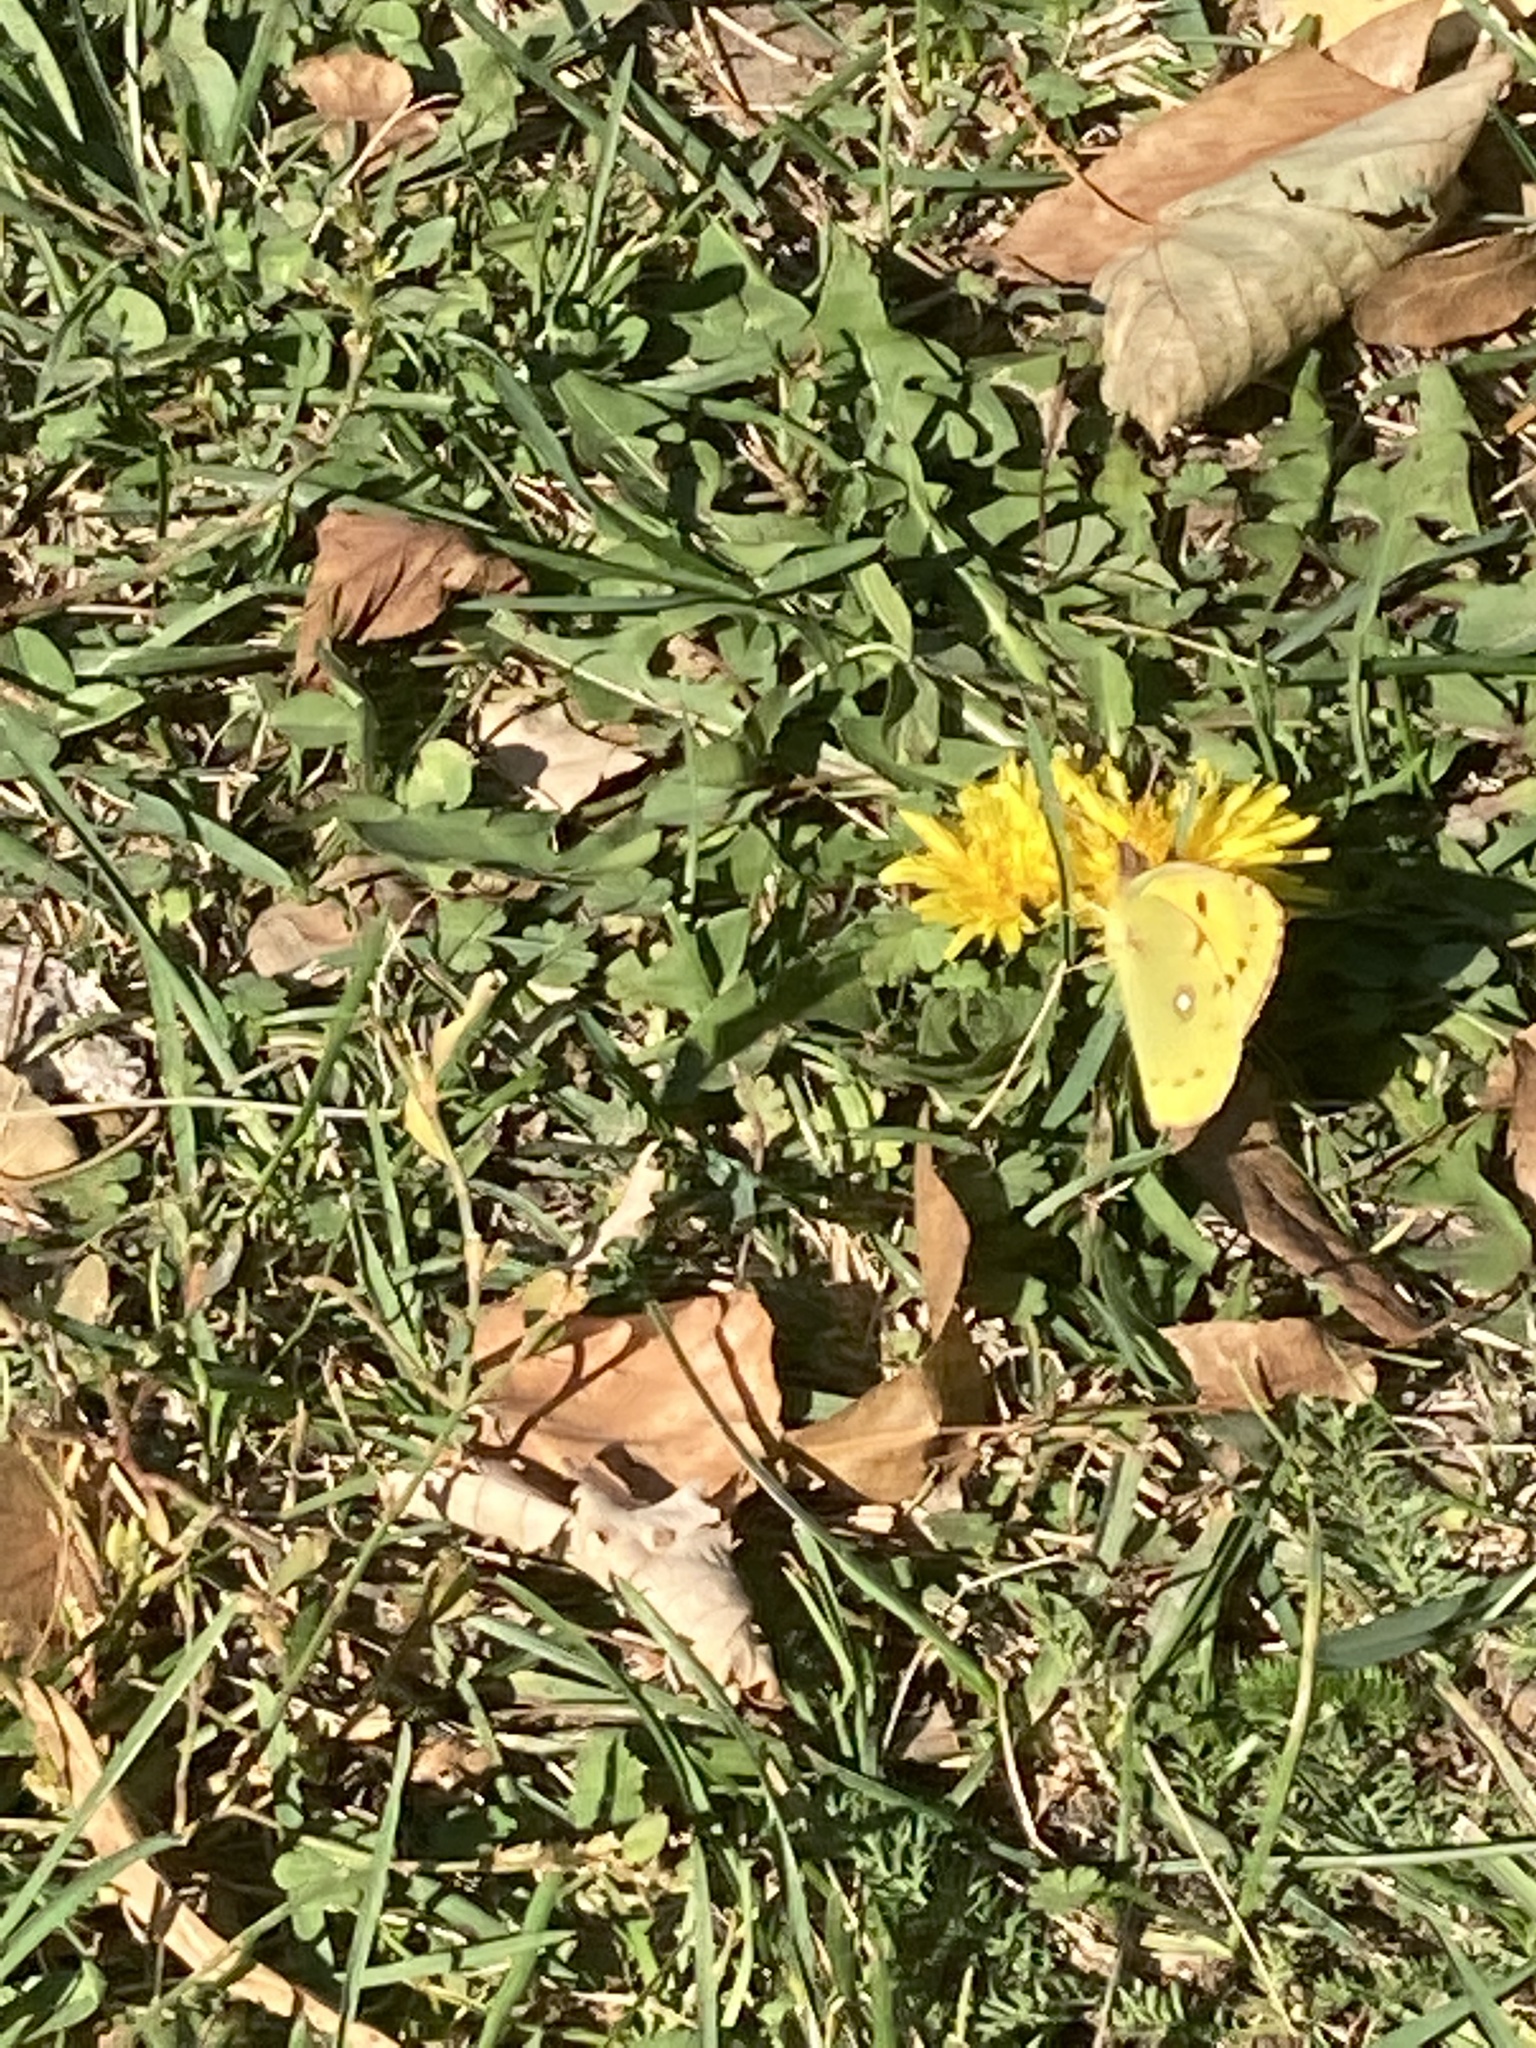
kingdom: Animalia
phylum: Arthropoda
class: Insecta
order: Lepidoptera
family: Pieridae
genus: Colias
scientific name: Colias croceus
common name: Clouded yellow
